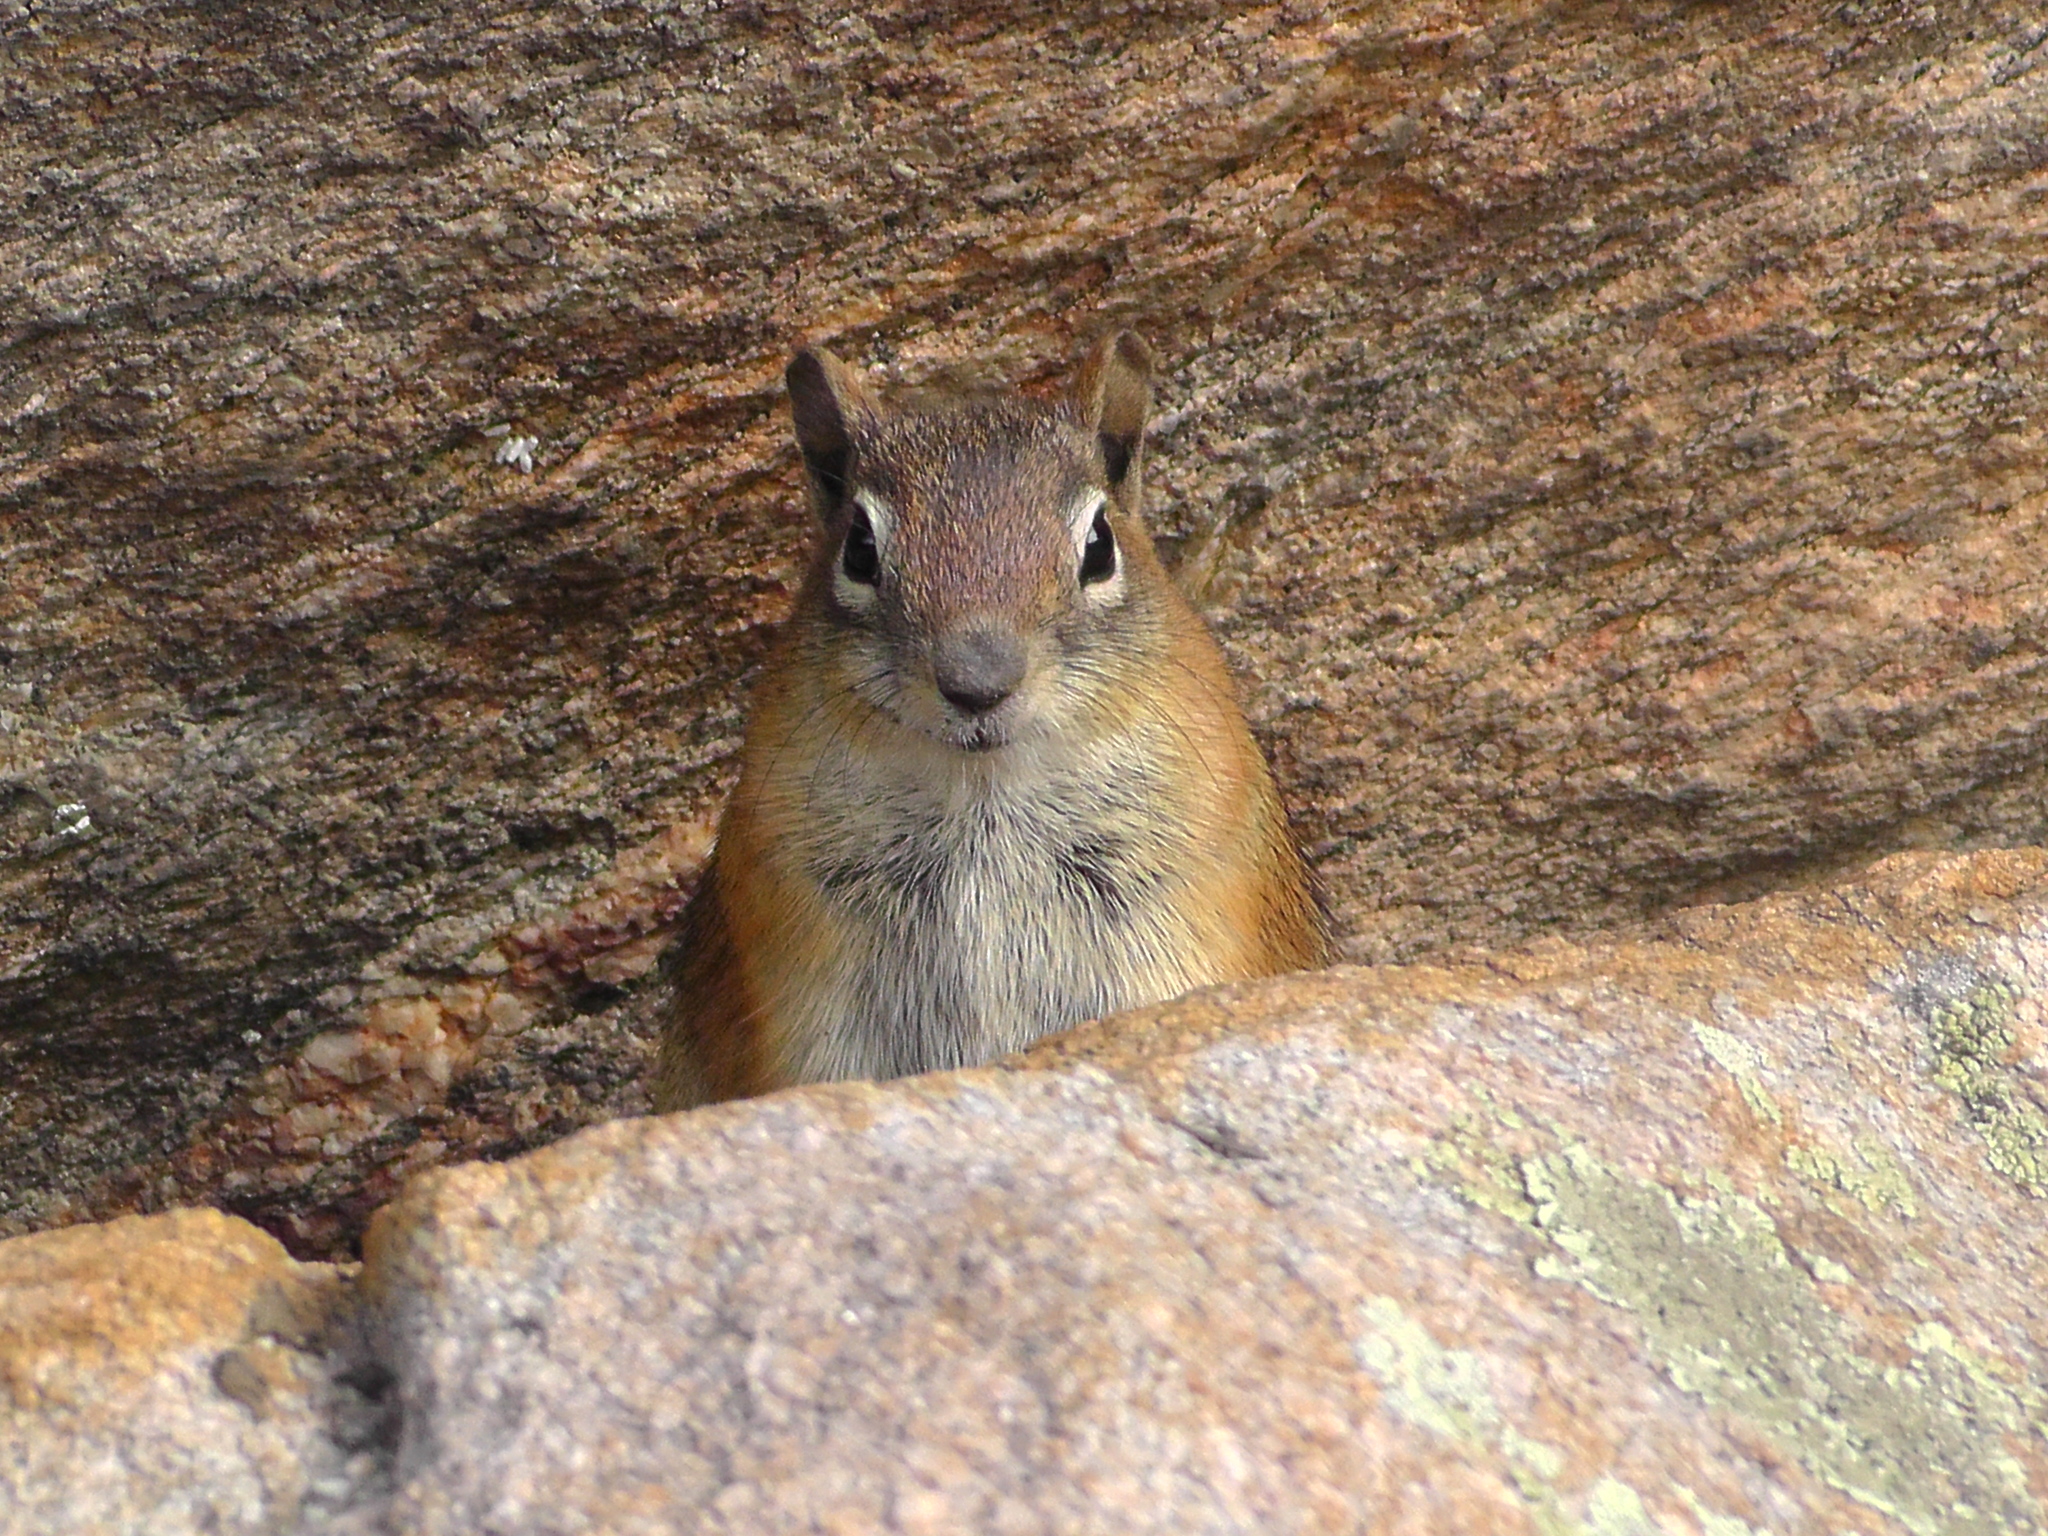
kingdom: Animalia
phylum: Chordata
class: Mammalia
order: Rodentia
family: Sciuridae
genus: Callospermophilus
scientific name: Callospermophilus lateralis
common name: Golden-mantled ground squirrel
